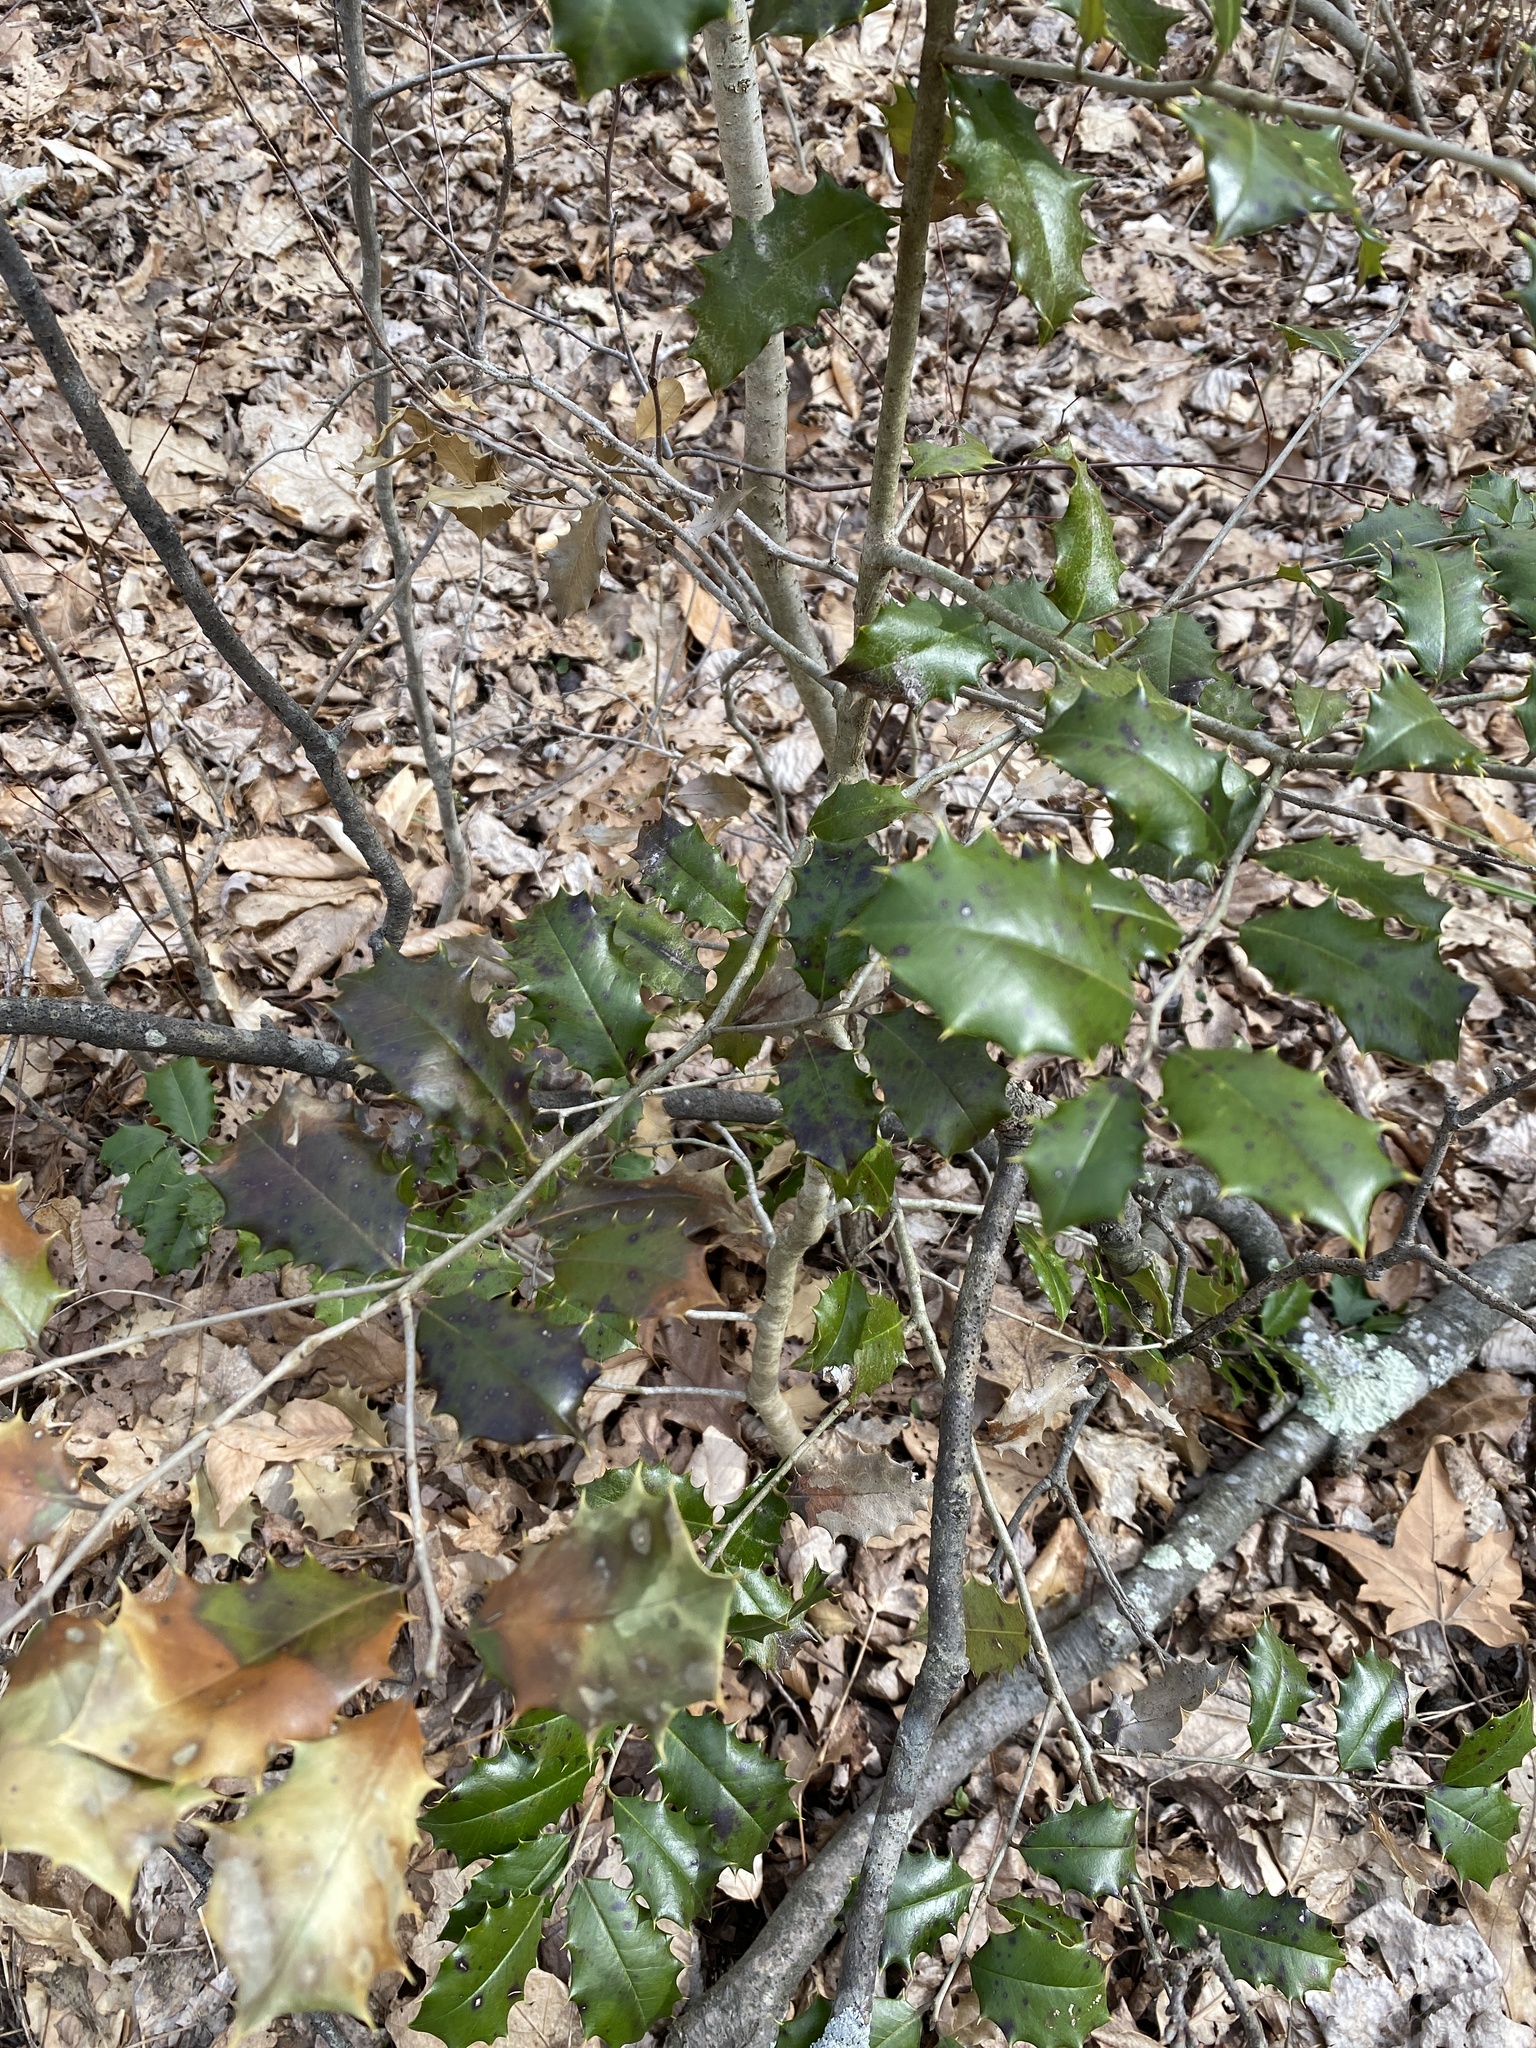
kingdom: Plantae
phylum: Tracheophyta
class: Magnoliopsida
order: Aquifoliales
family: Aquifoliaceae
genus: Ilex
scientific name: Ilex opaca
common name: American holly
